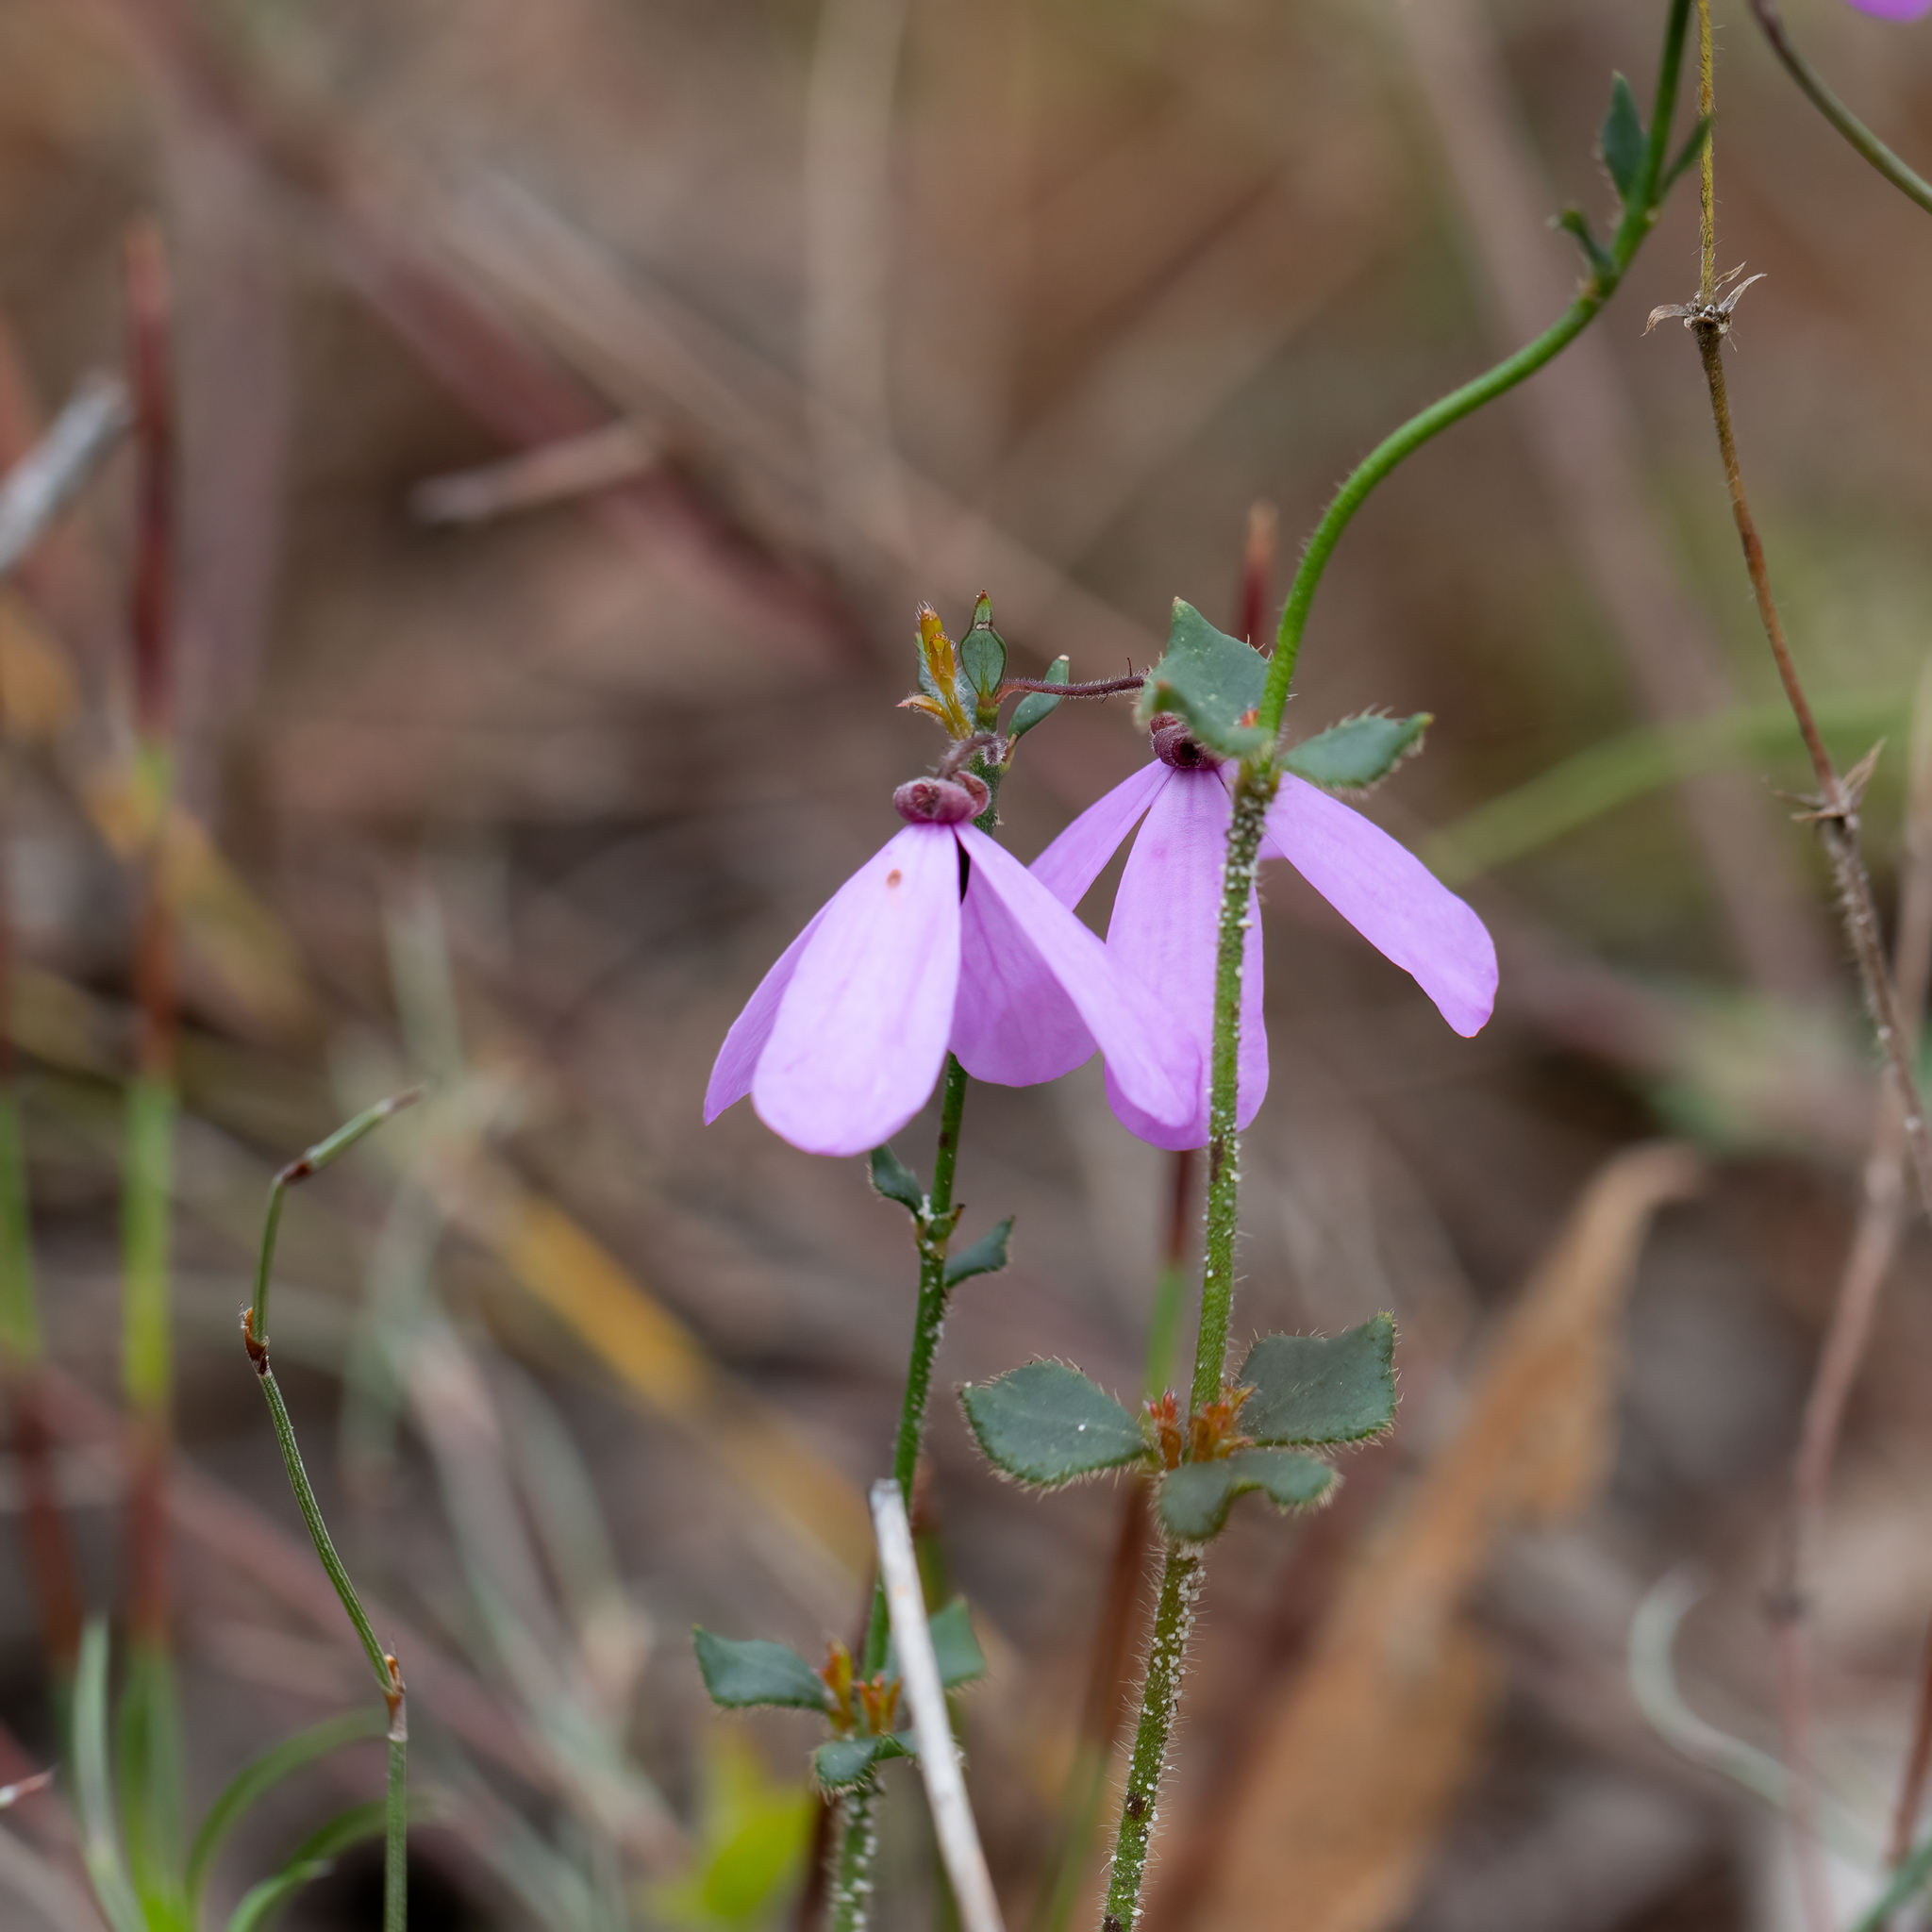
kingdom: Plantae
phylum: Tracheophyta
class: Magnoliopsida
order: Oxalidales
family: Elaeocarpaceae
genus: Tetratheca
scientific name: Tetratheca ciliata
